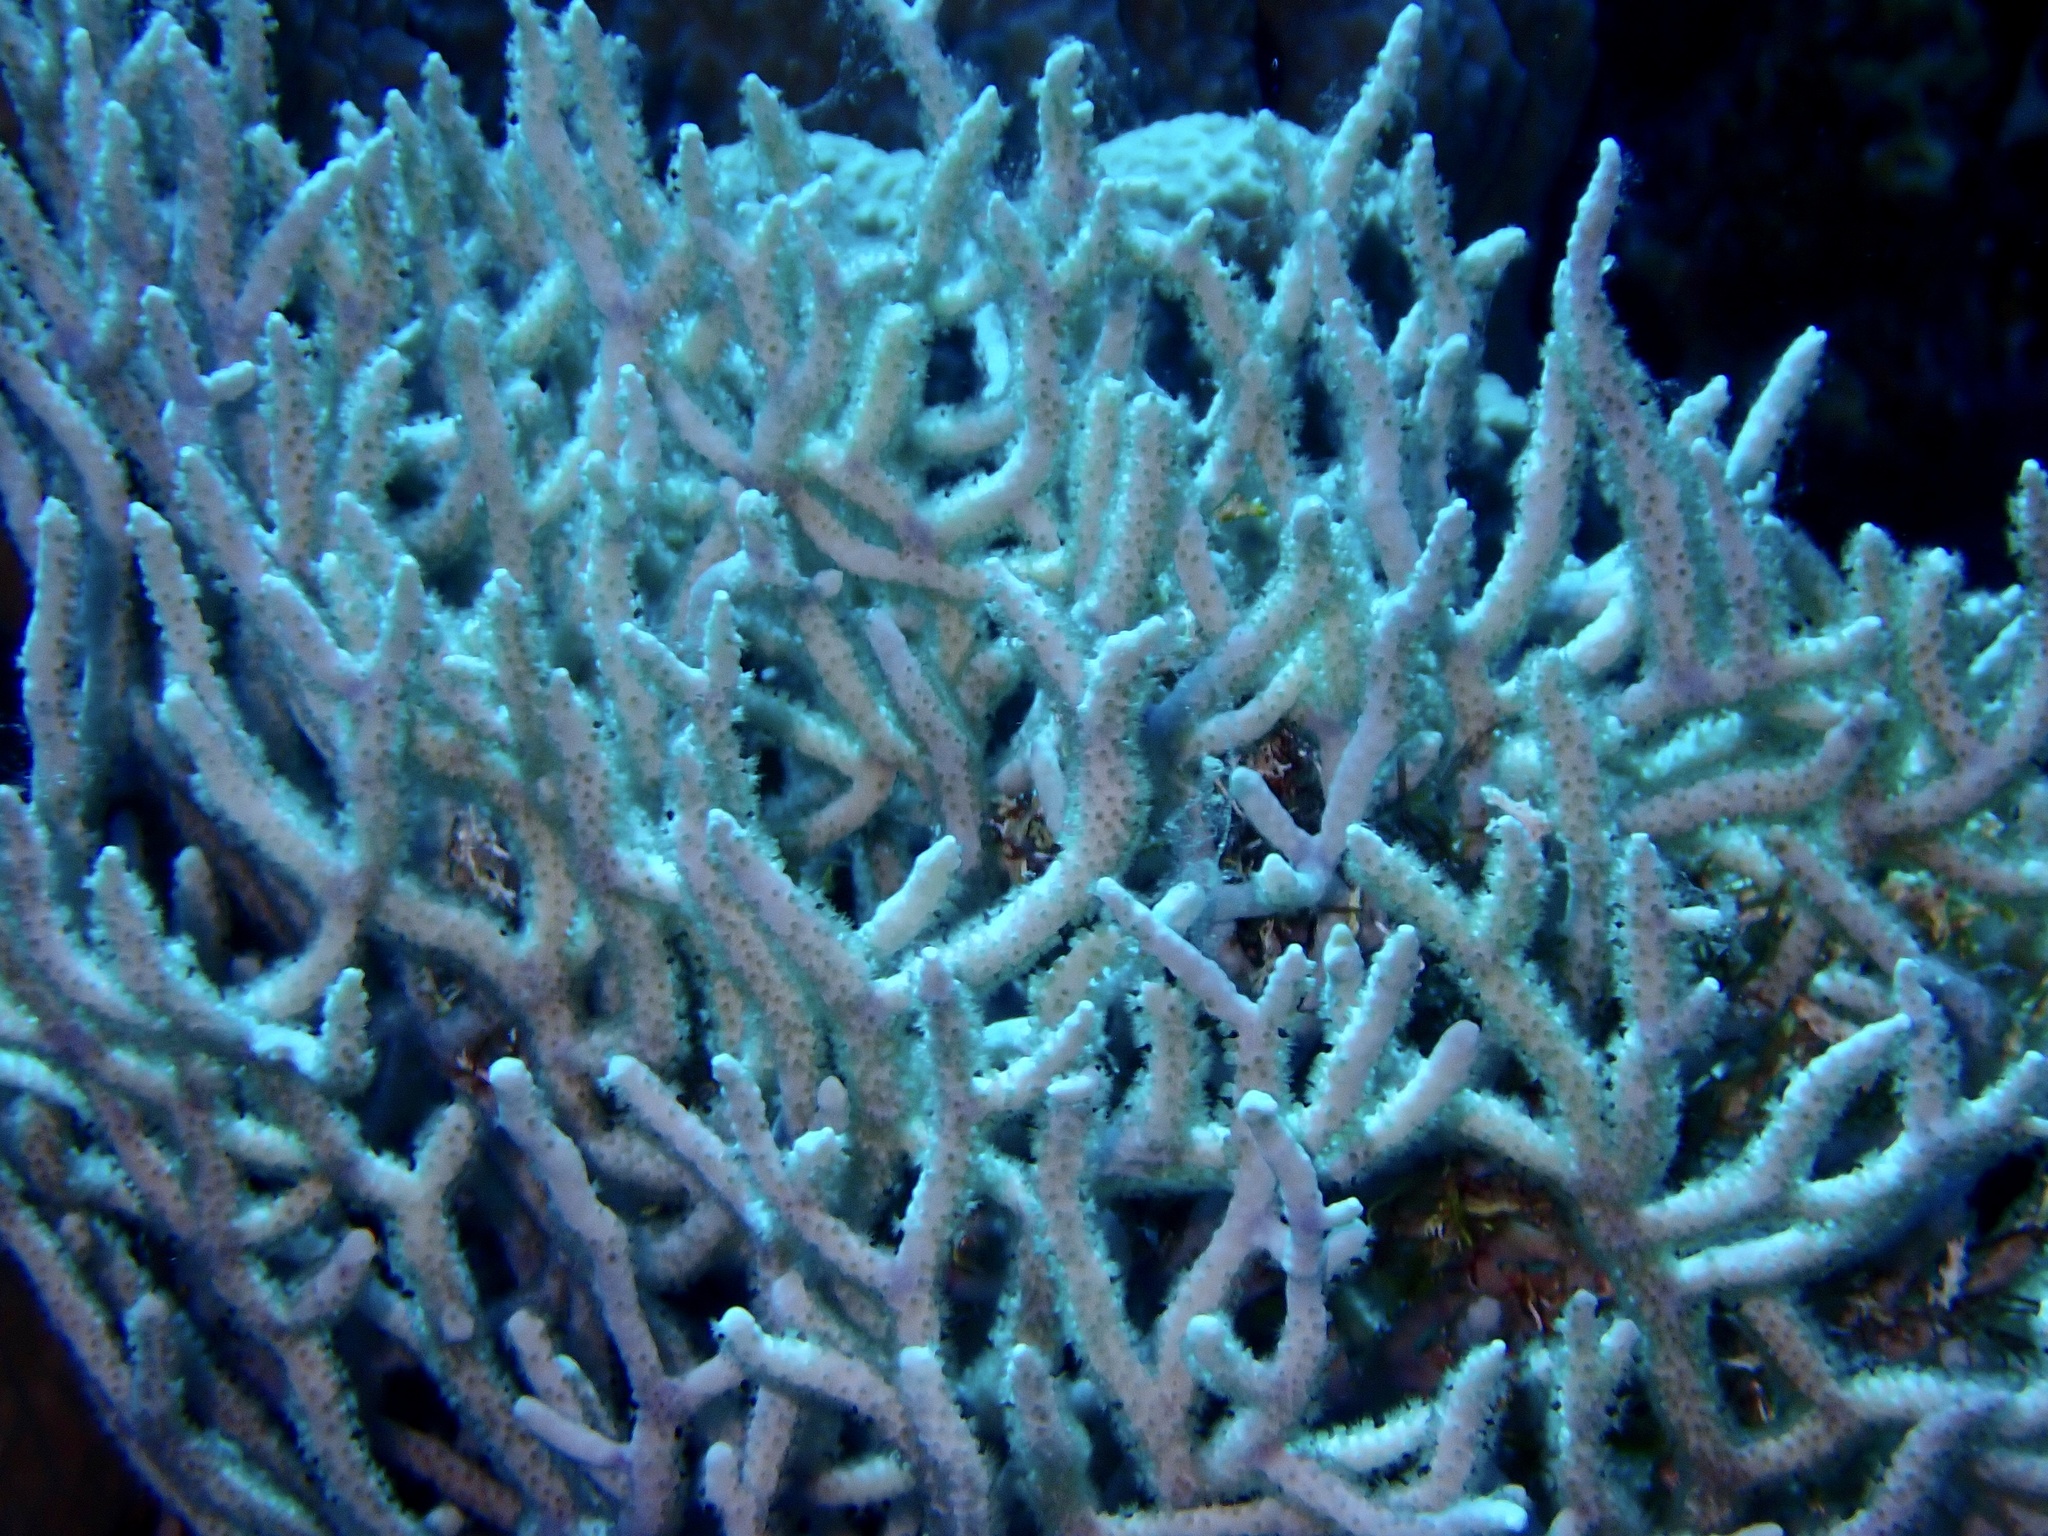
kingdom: Animalia
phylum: Cnidaria
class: Anthozoa
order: Malacalcyonacea
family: Melithaeidae
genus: Melithaea
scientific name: Melithaea rubrinodis
